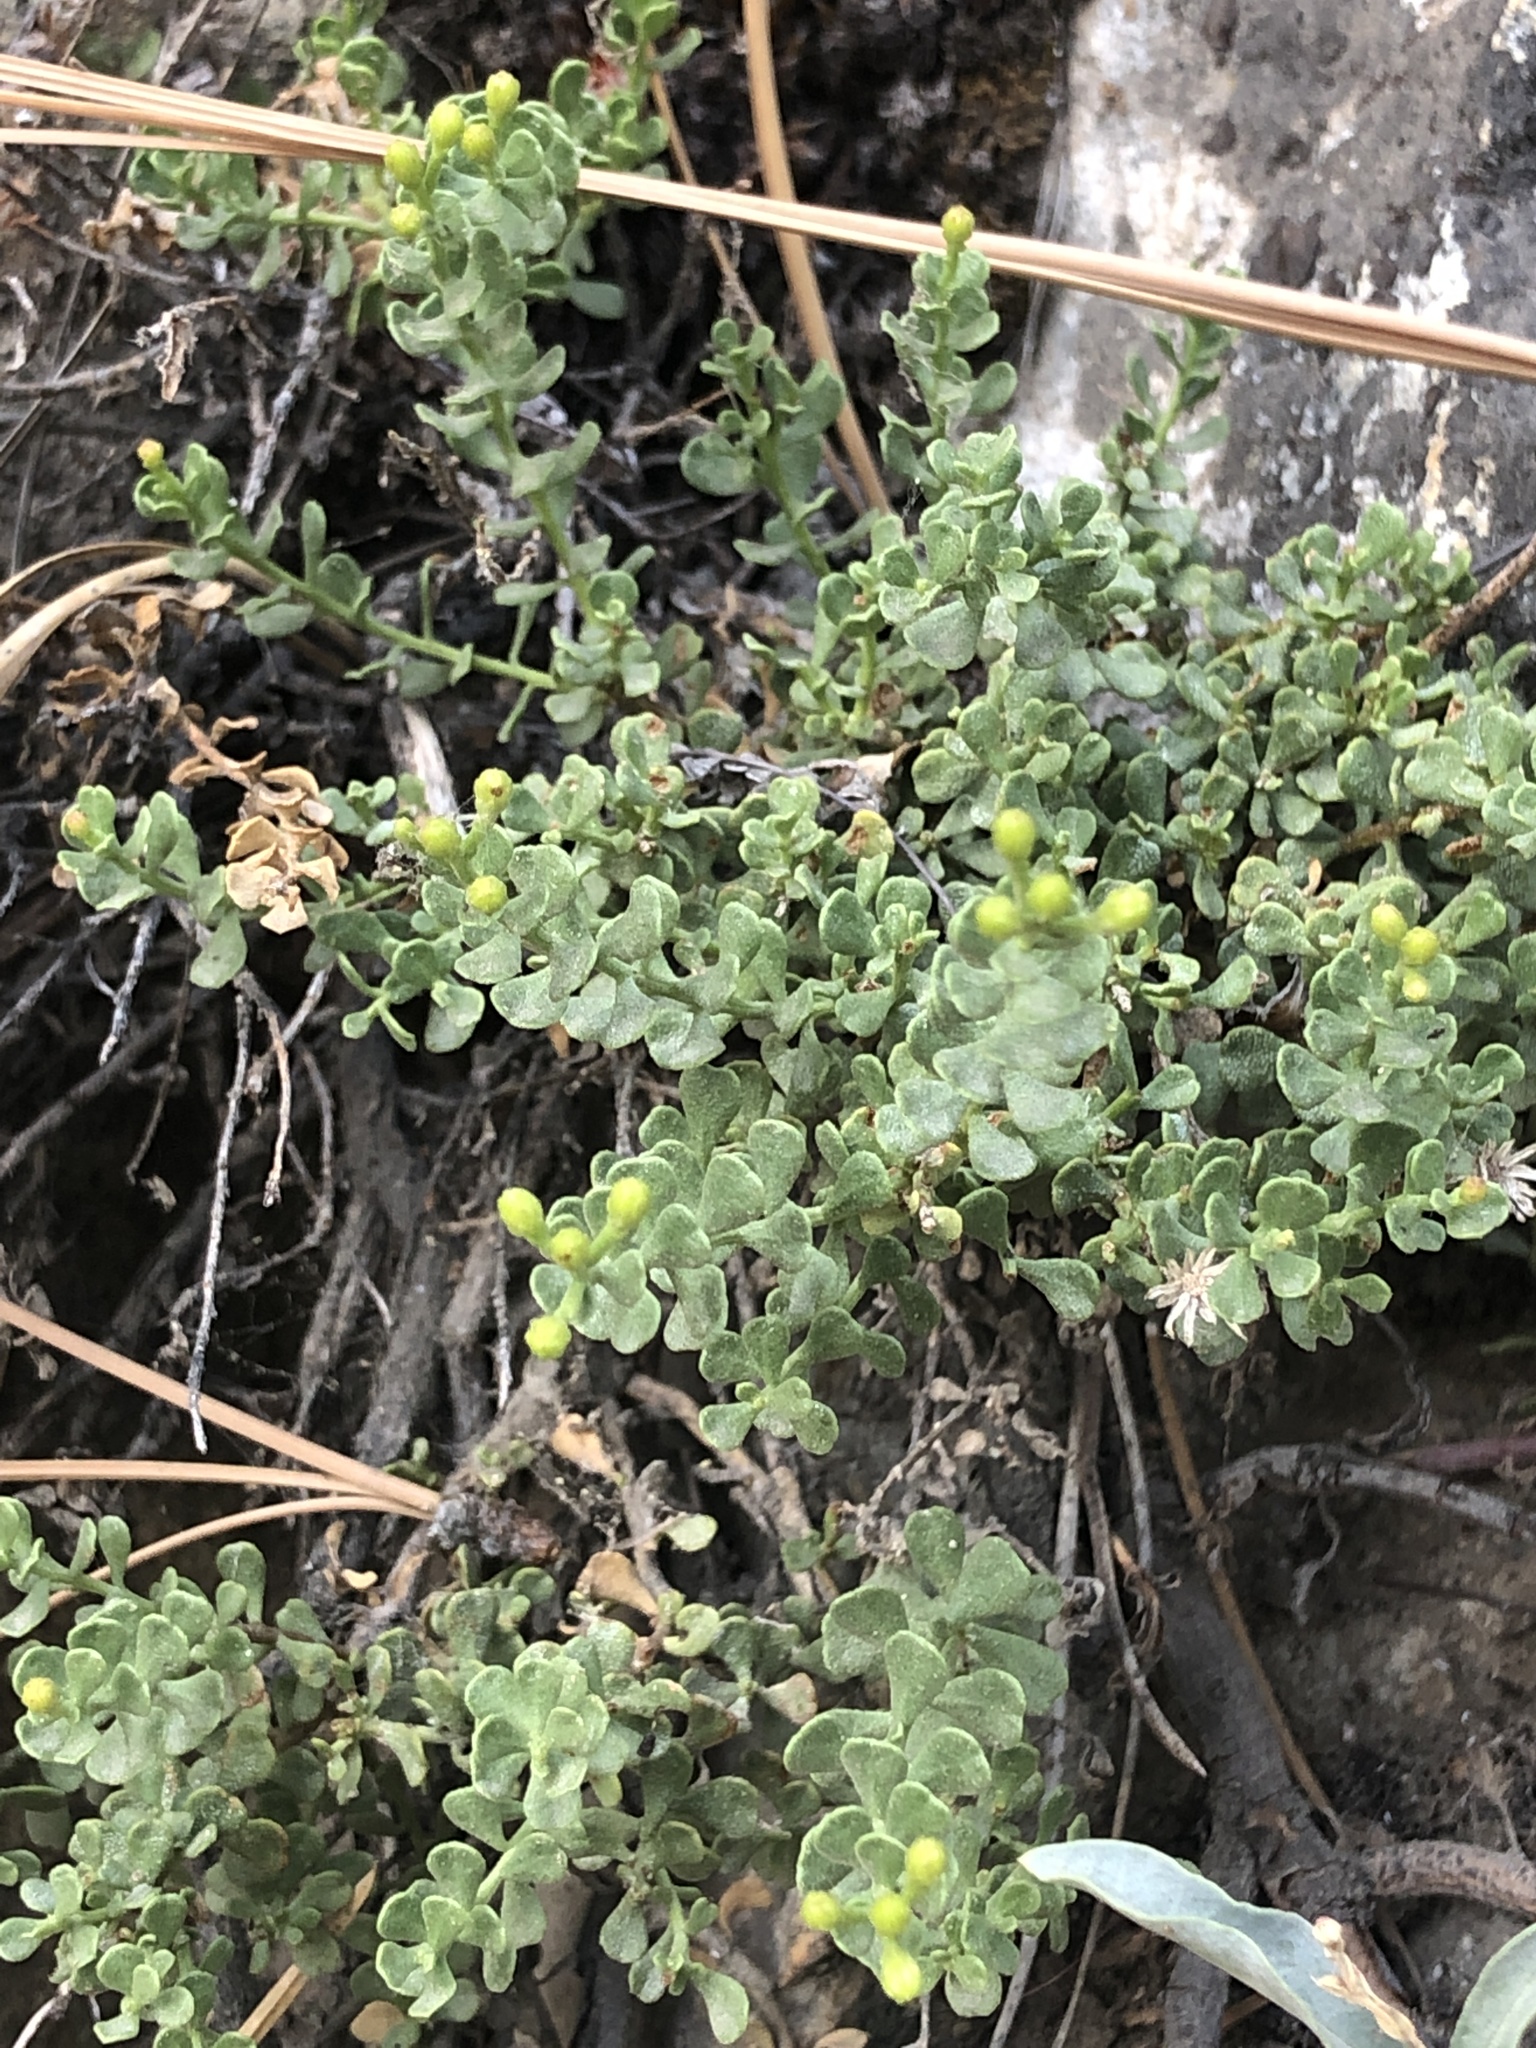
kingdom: Plantae
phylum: Tracheophyta
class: Magnoliopsida
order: Asterales
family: Asteraceae
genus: Ericameria
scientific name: Ericameria cuneata
